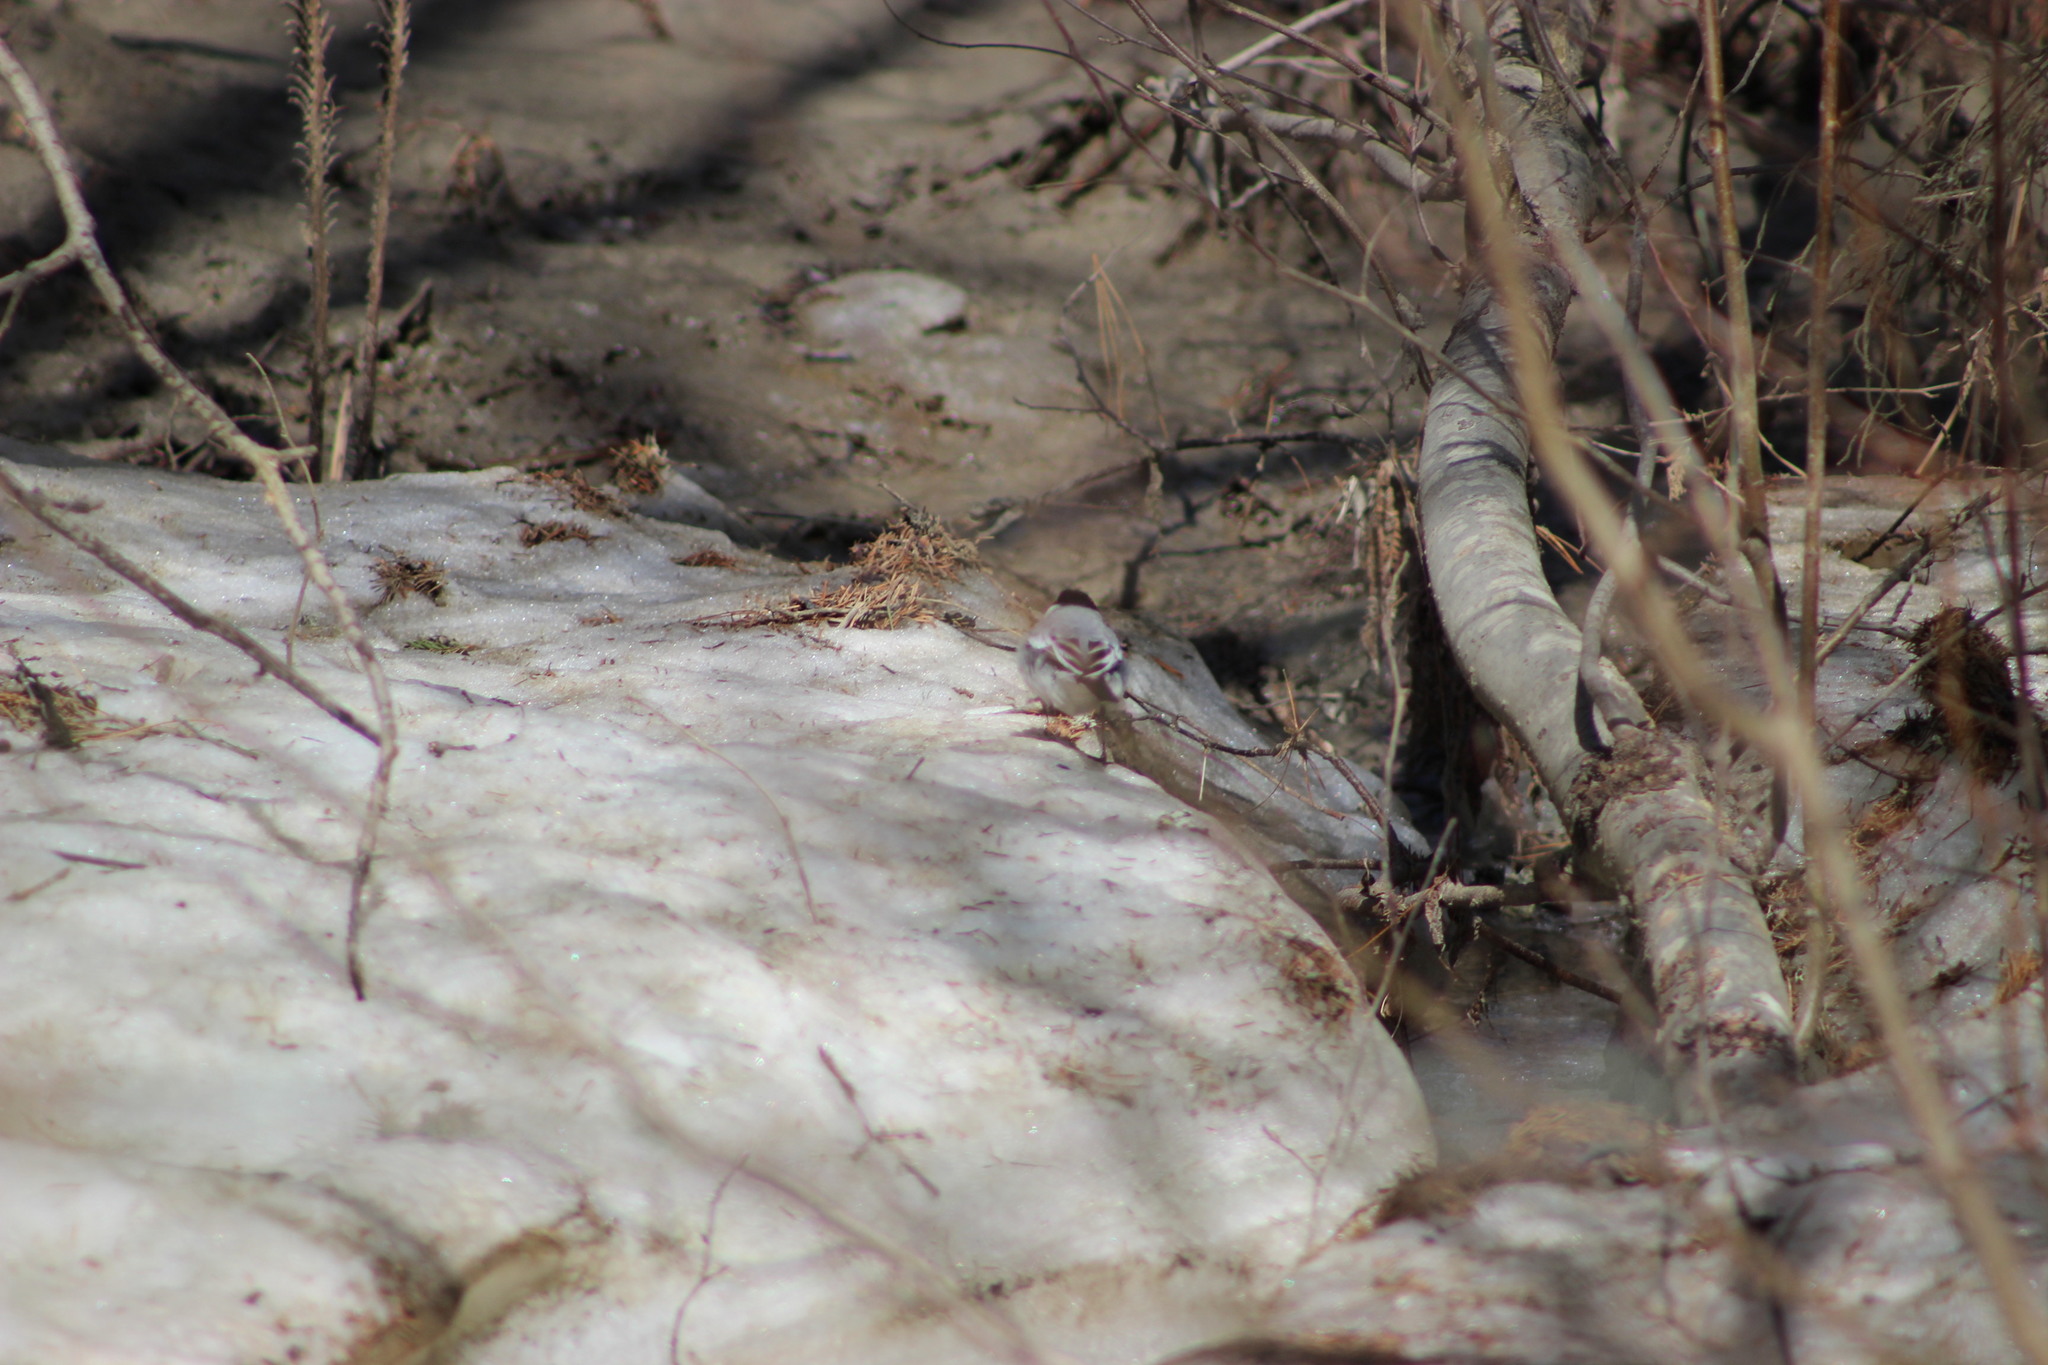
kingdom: Animalia
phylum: Chordata
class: Aves
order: Passeriformes
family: Fringillidae
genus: Fringilla
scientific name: Fringilla coelebs
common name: Common chaffinch
